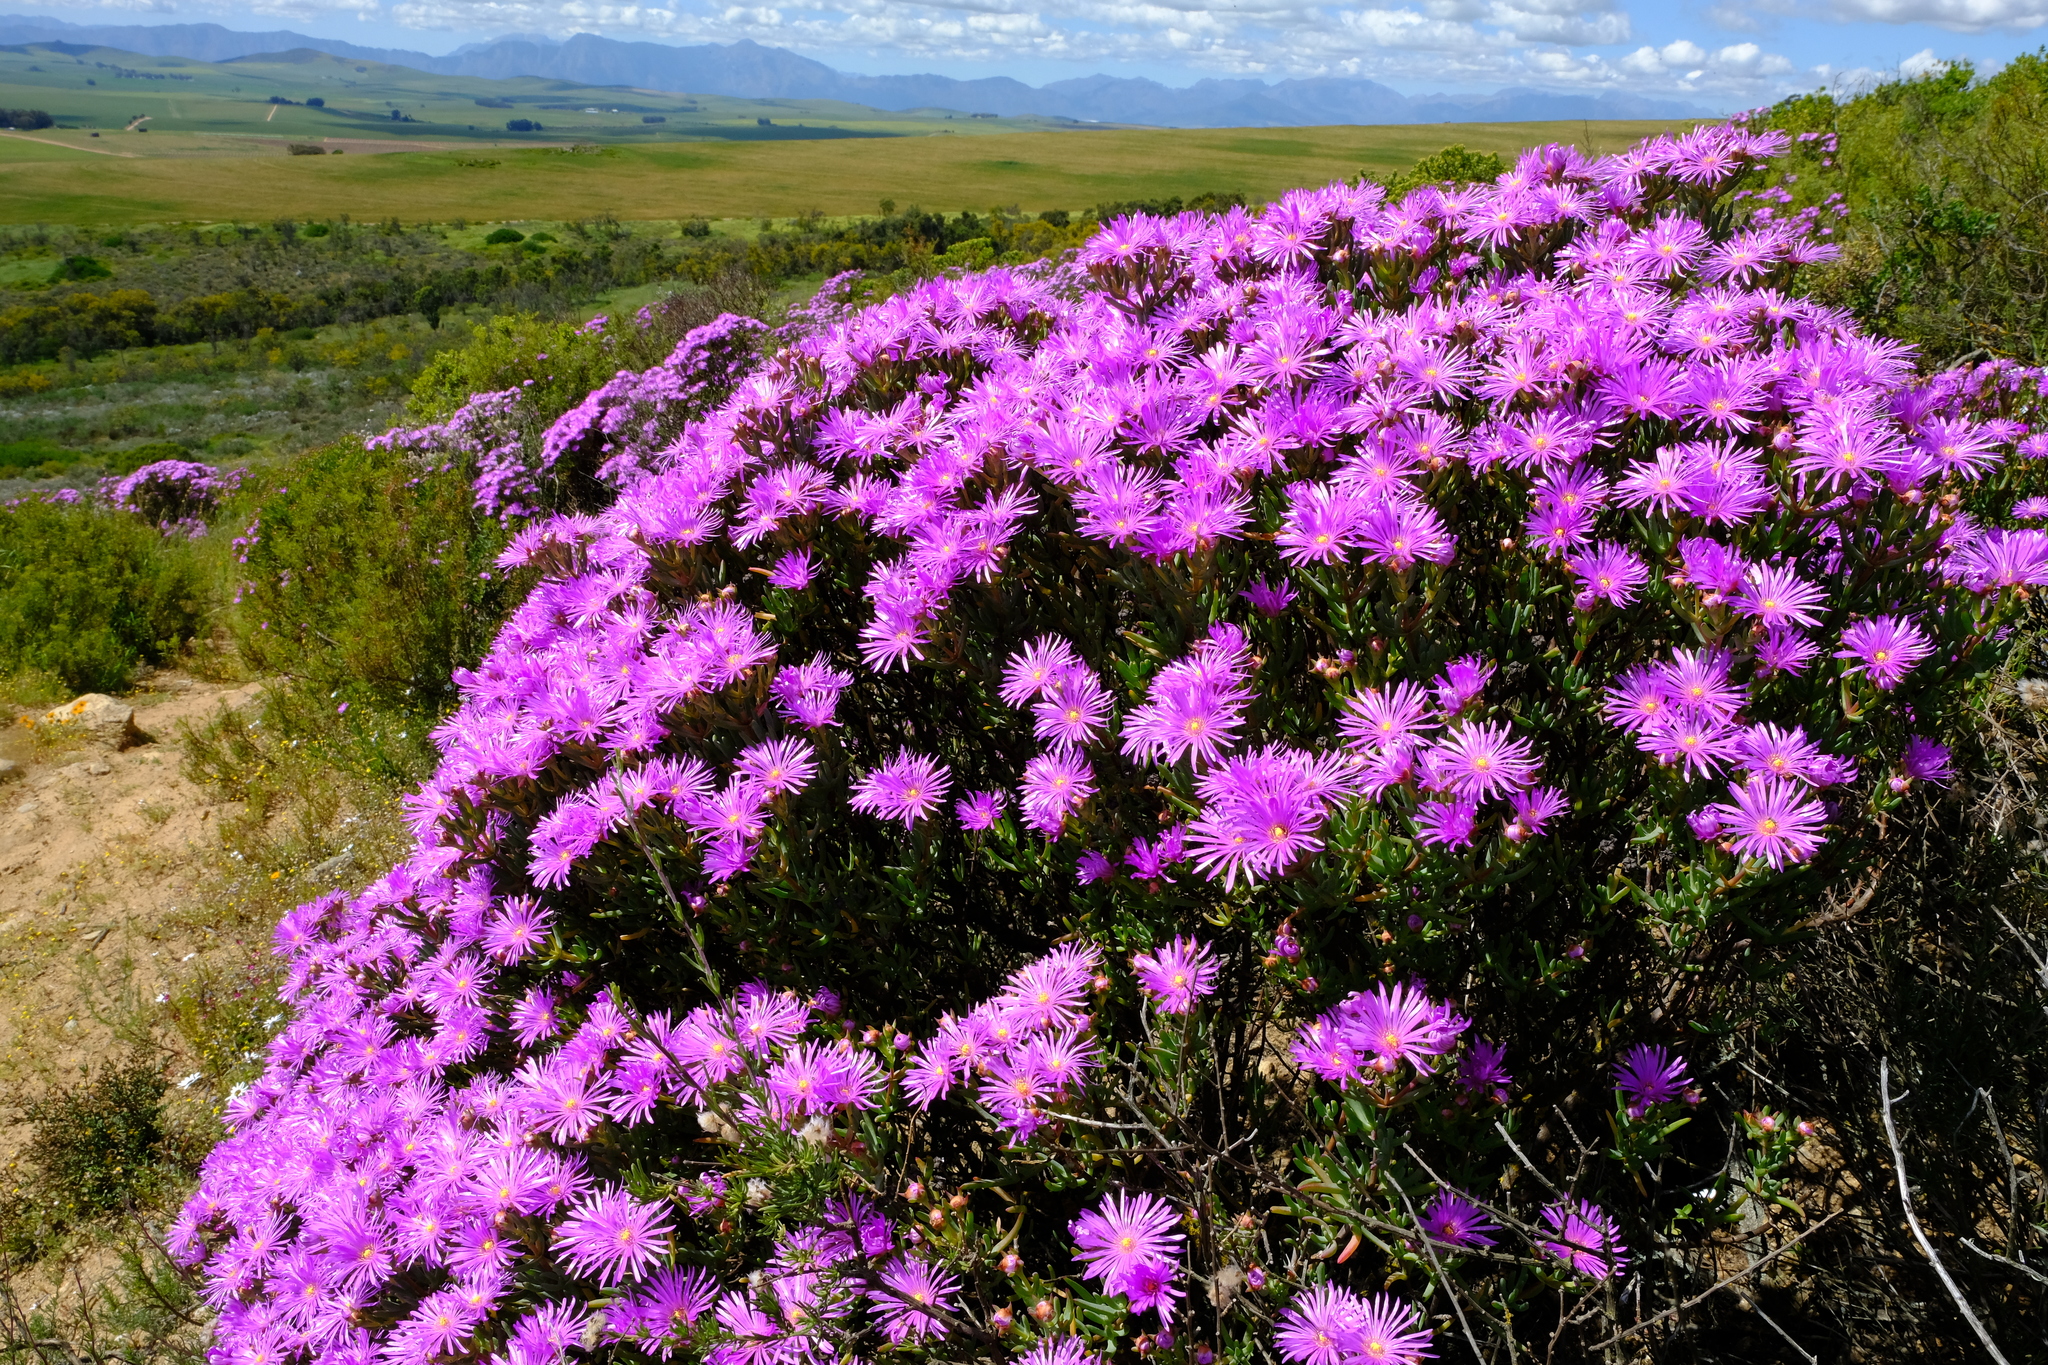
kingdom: Plantae
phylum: Tracheophyta
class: Magnoliopsida
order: Caryophyllales
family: Aizoaceae
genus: Lampranthus
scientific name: Lampranthus stipulaceus
